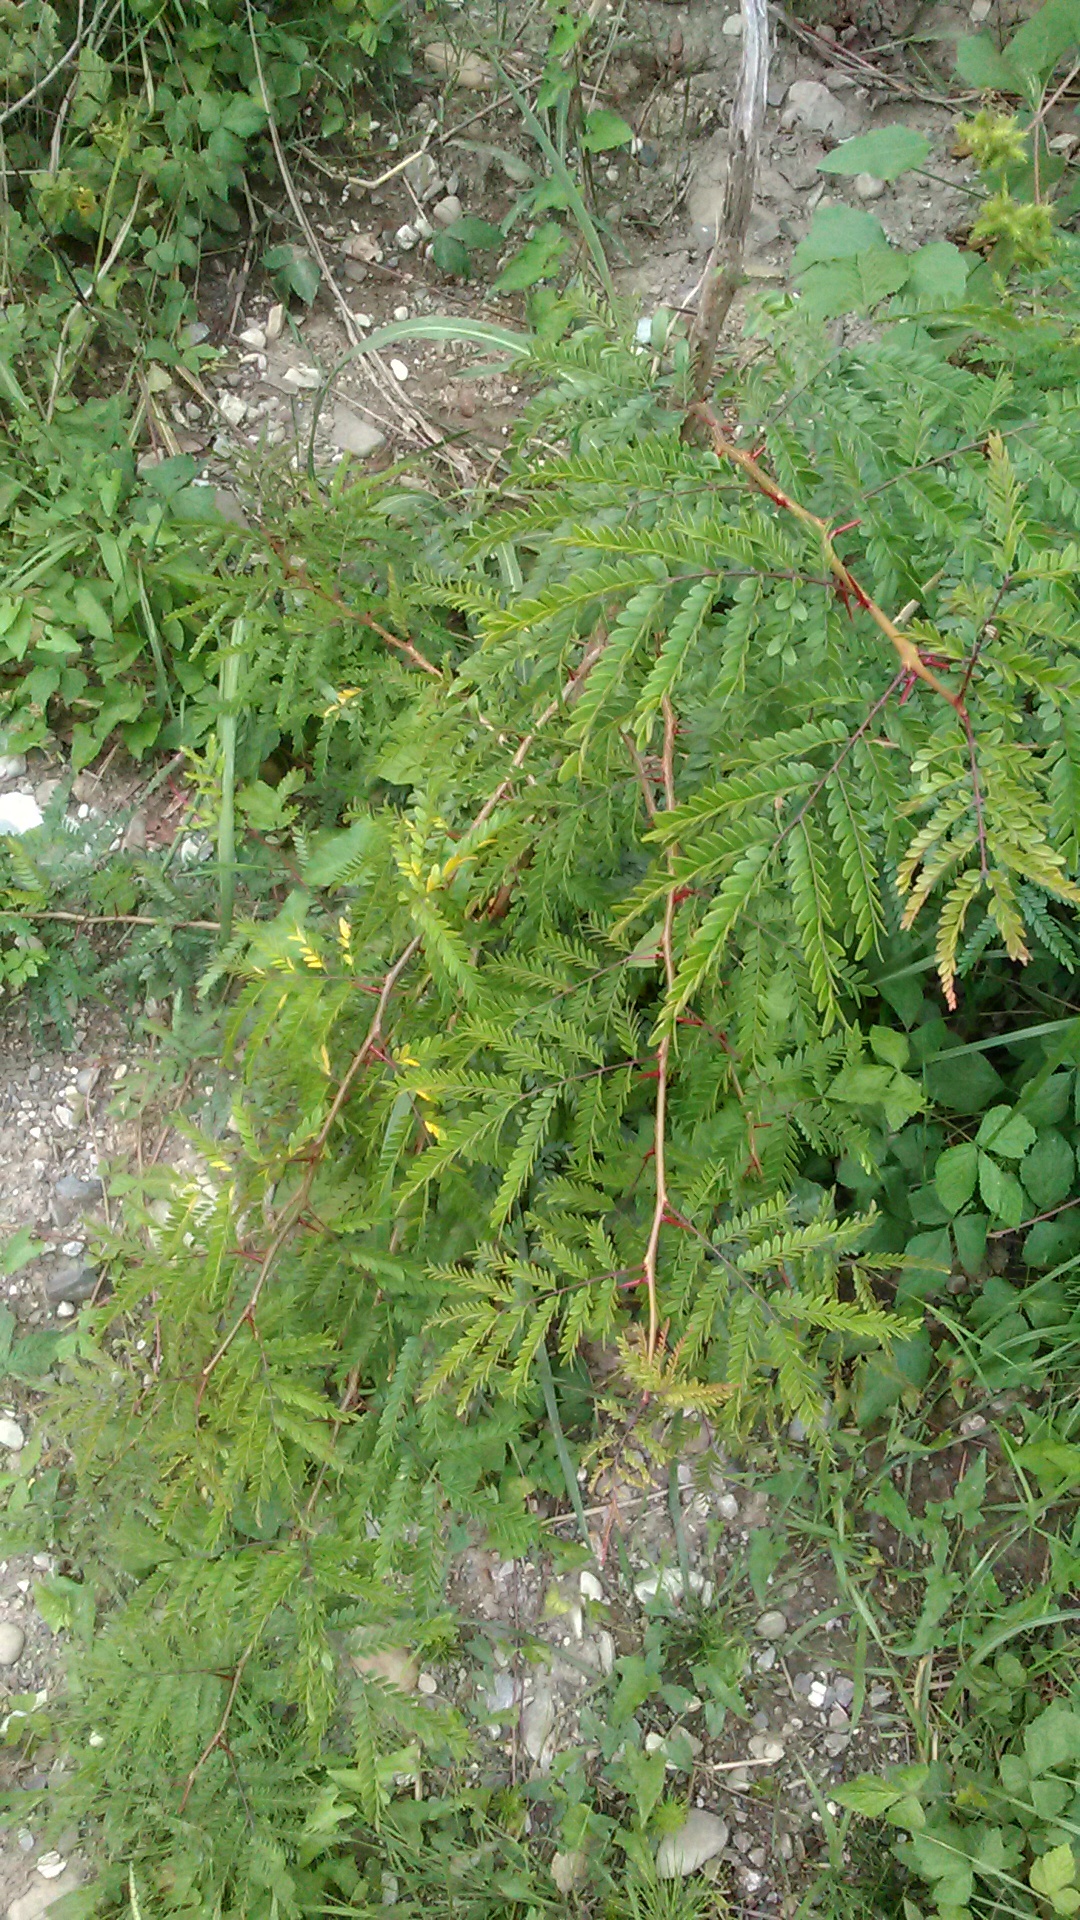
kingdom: Plantae
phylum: Tracheophyta
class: Magnoliopsida
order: Fabales
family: Fabaceae
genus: Gleditsia
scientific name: Gleditsia triacanthos
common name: Common honeylocust
